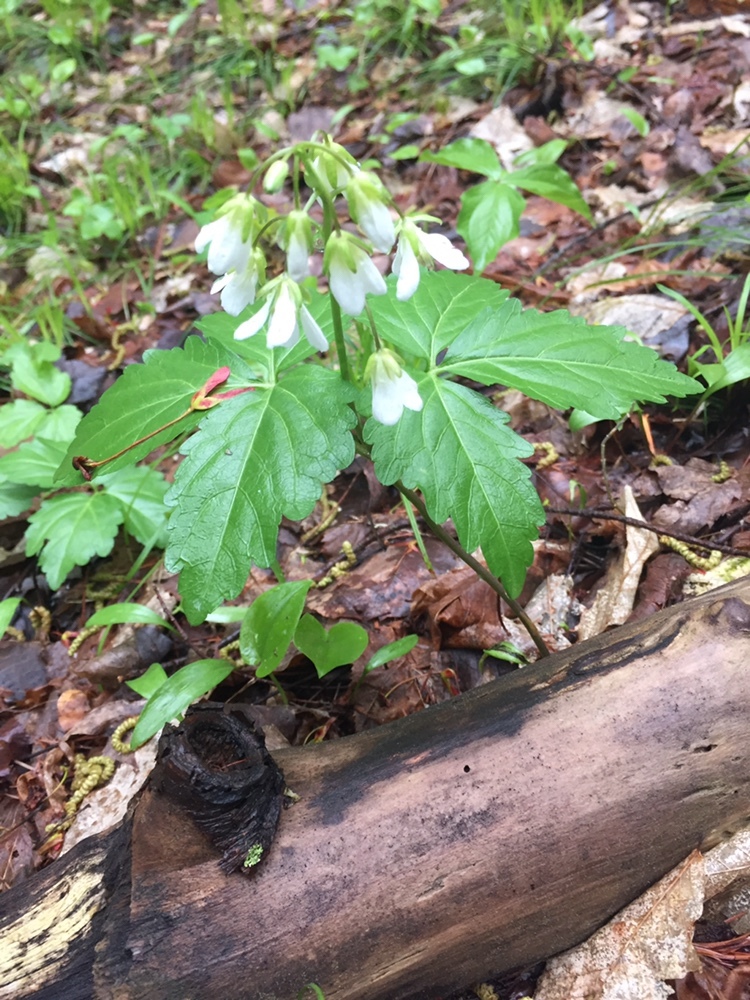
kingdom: Plantae
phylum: Tracheophyta
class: Magnoliopsida
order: Brassicales
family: Brassicaceae
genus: Cardamine
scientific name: Cardamine diphylla
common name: Broad-leaved toothwort
